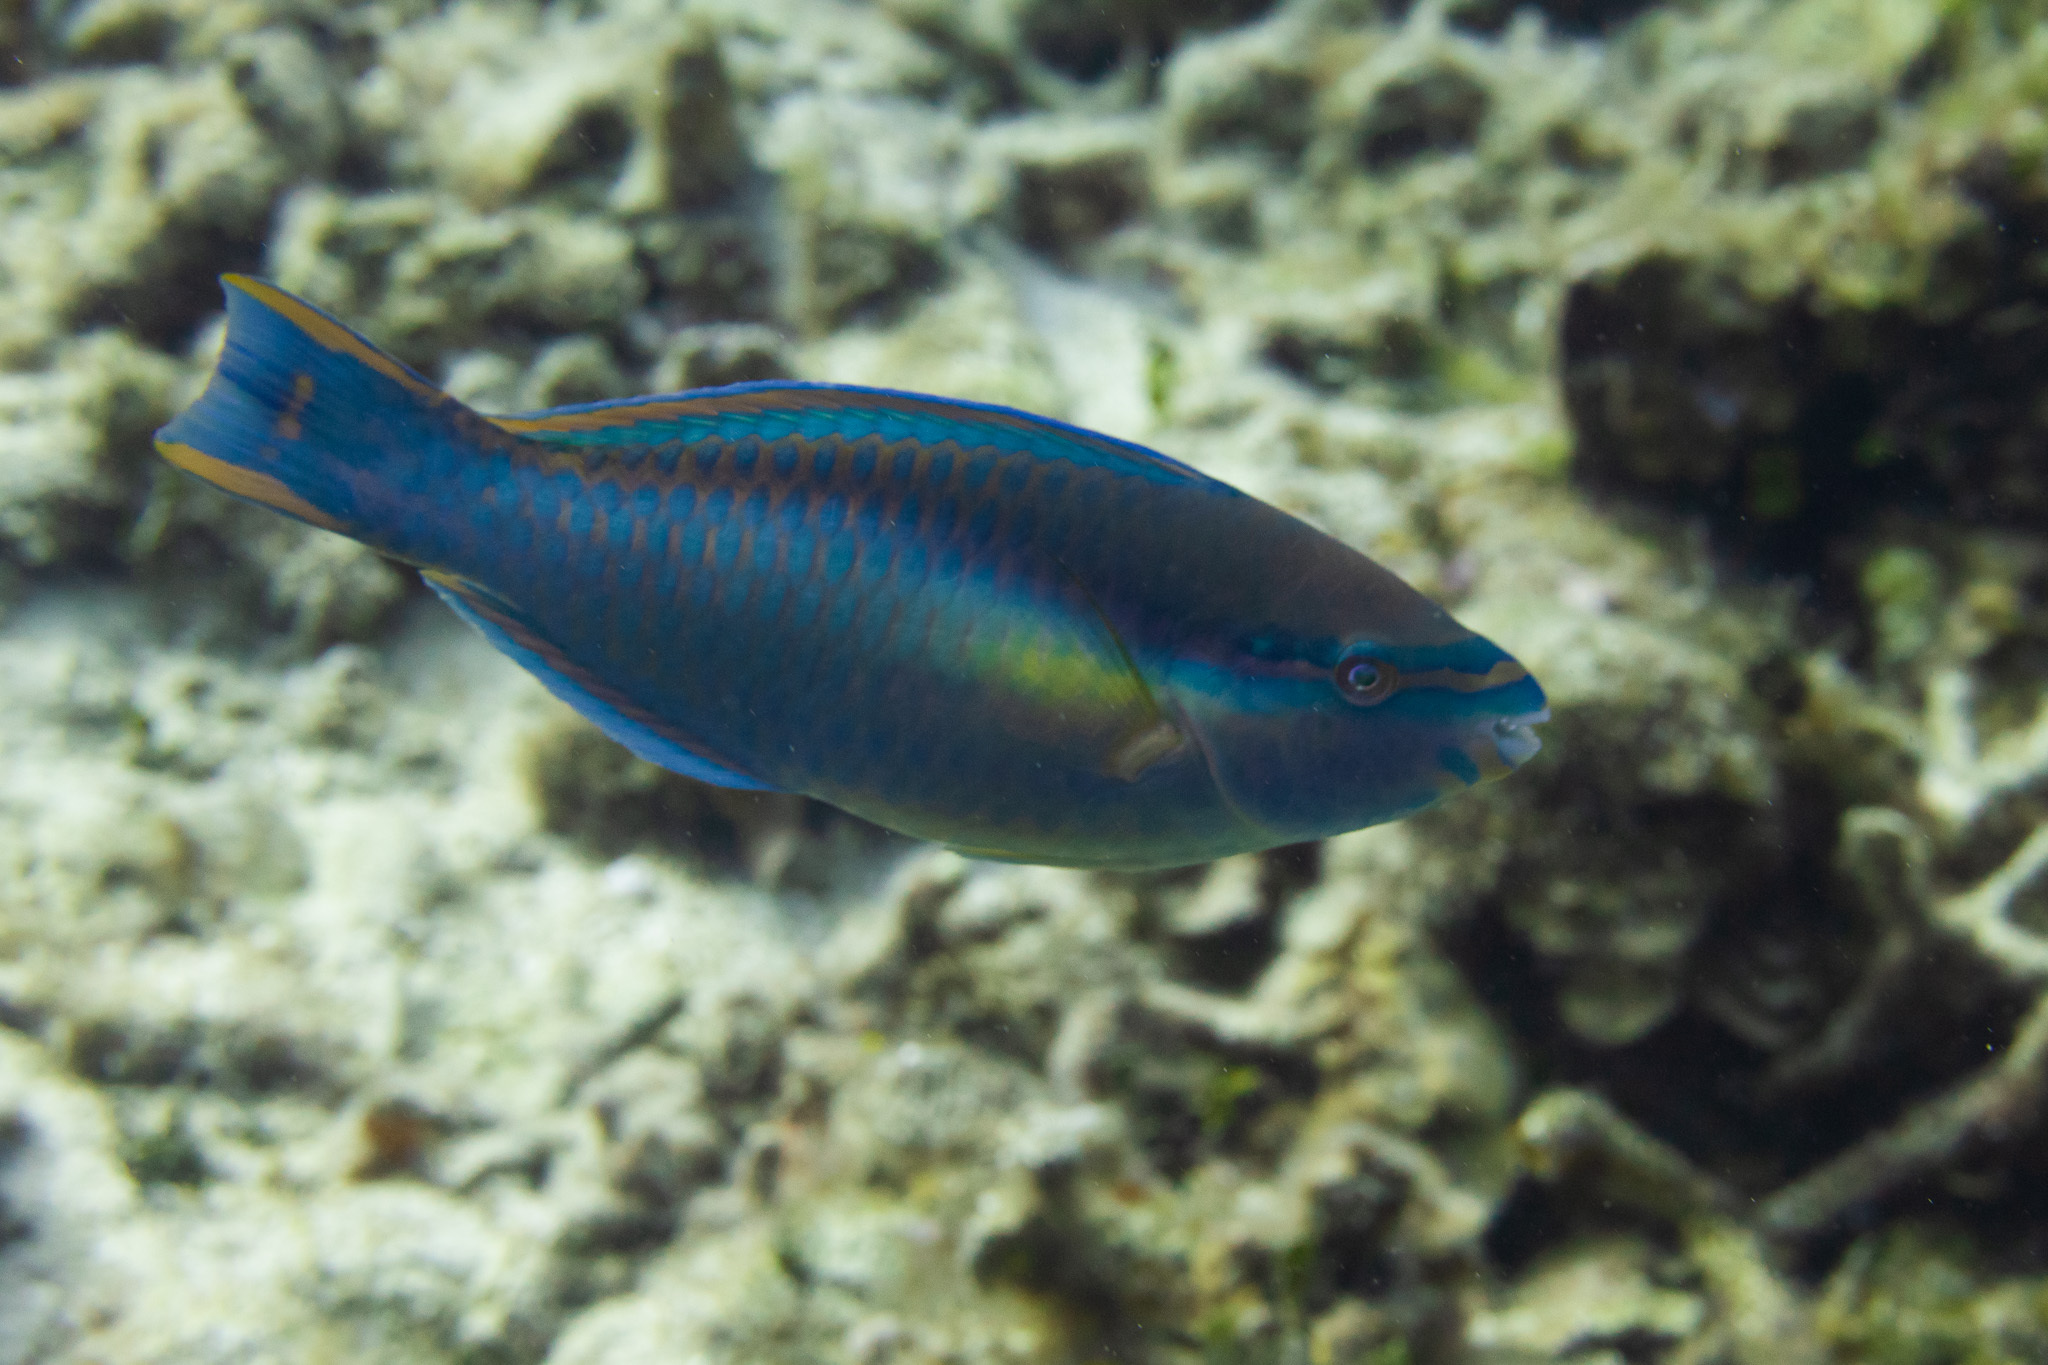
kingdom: Animalia
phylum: Chordata
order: Perciformes
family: Scaridae
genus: Scarus
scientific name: Scarus taeniopterus
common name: Princess parrotfish
